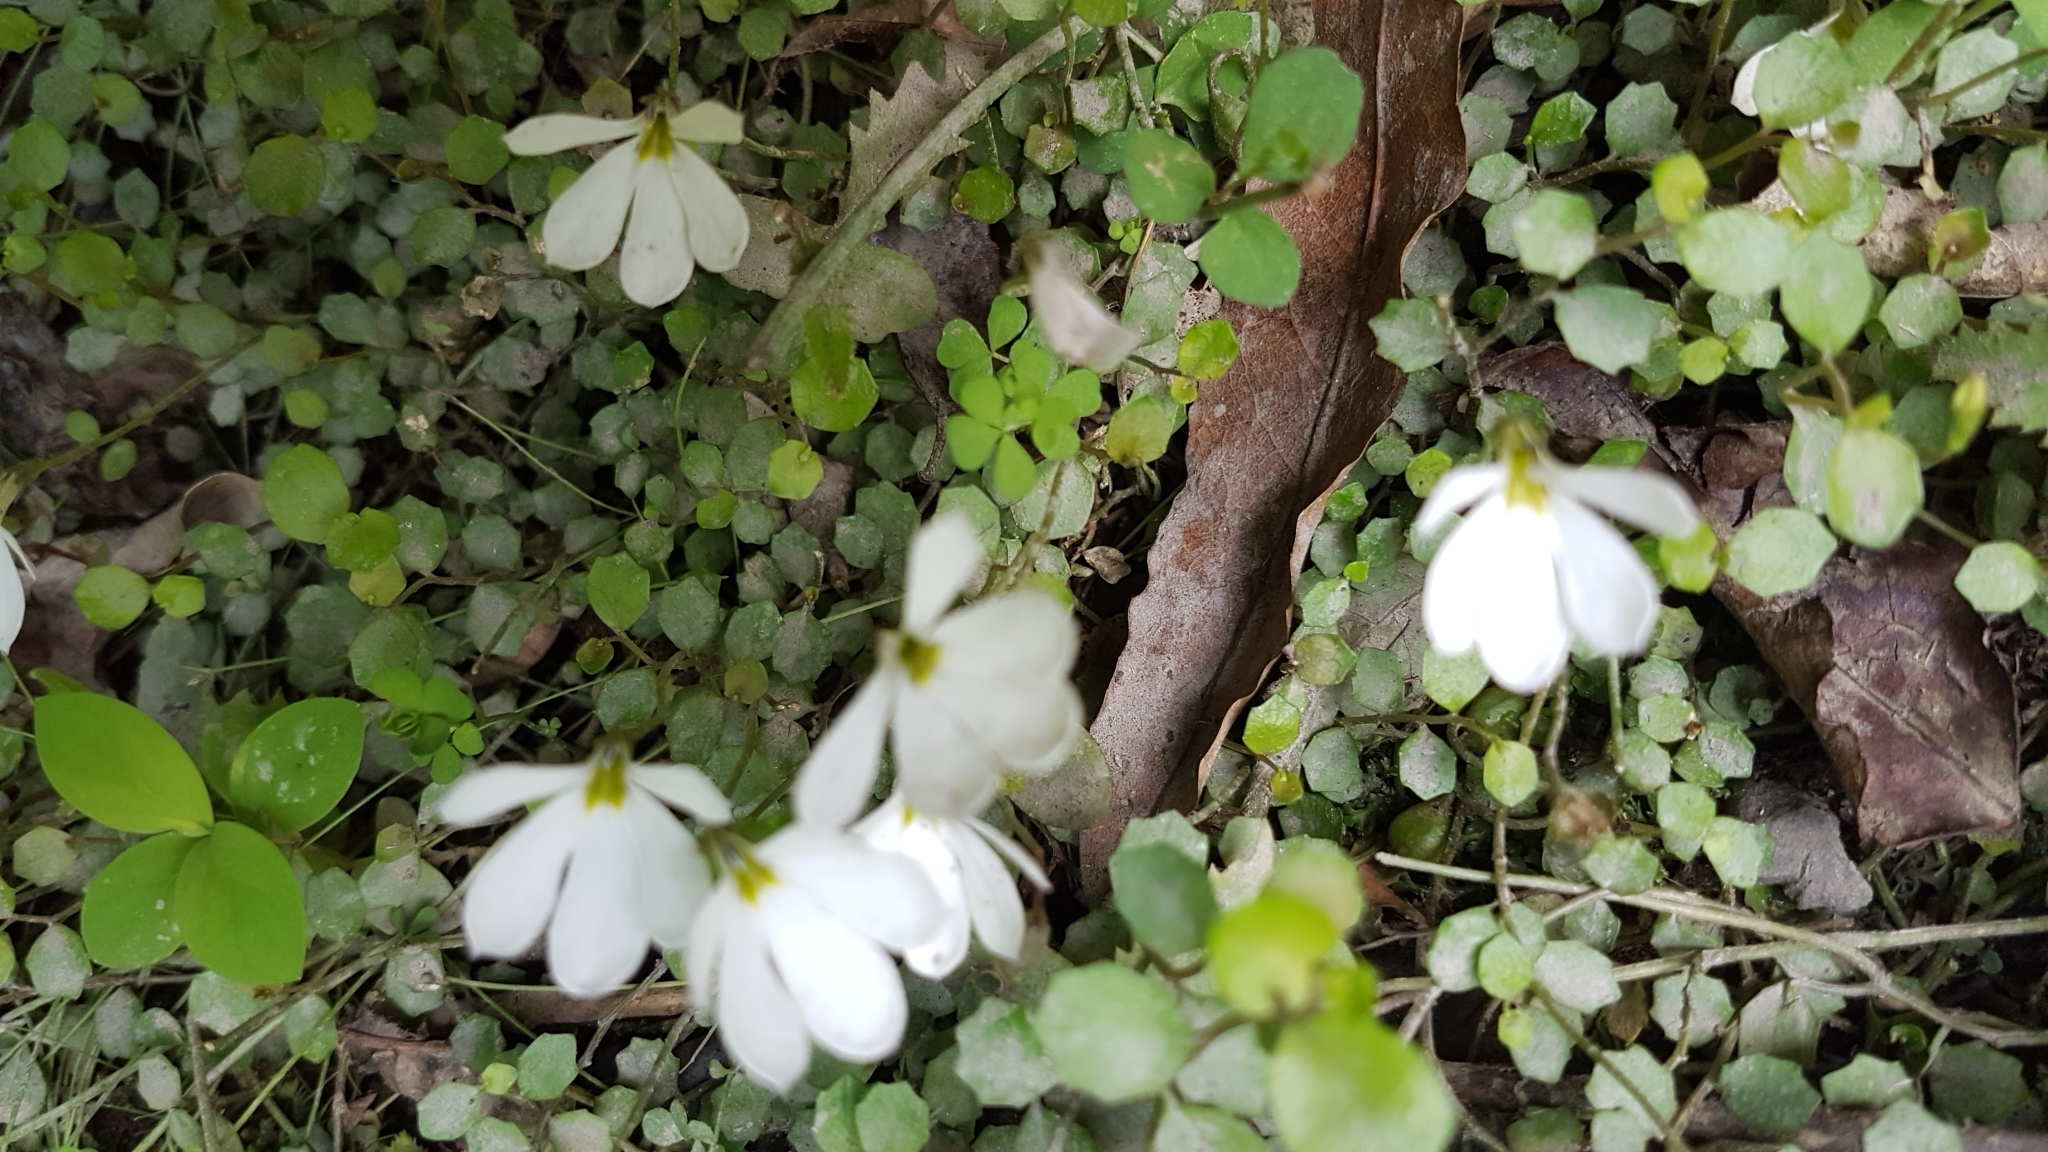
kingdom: Plantae
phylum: Tracheophyta
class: Magnoliopsida
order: Asterales
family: Campanulaceae
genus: Lobelia
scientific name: Lobelia angulata
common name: Lawn lobelia
